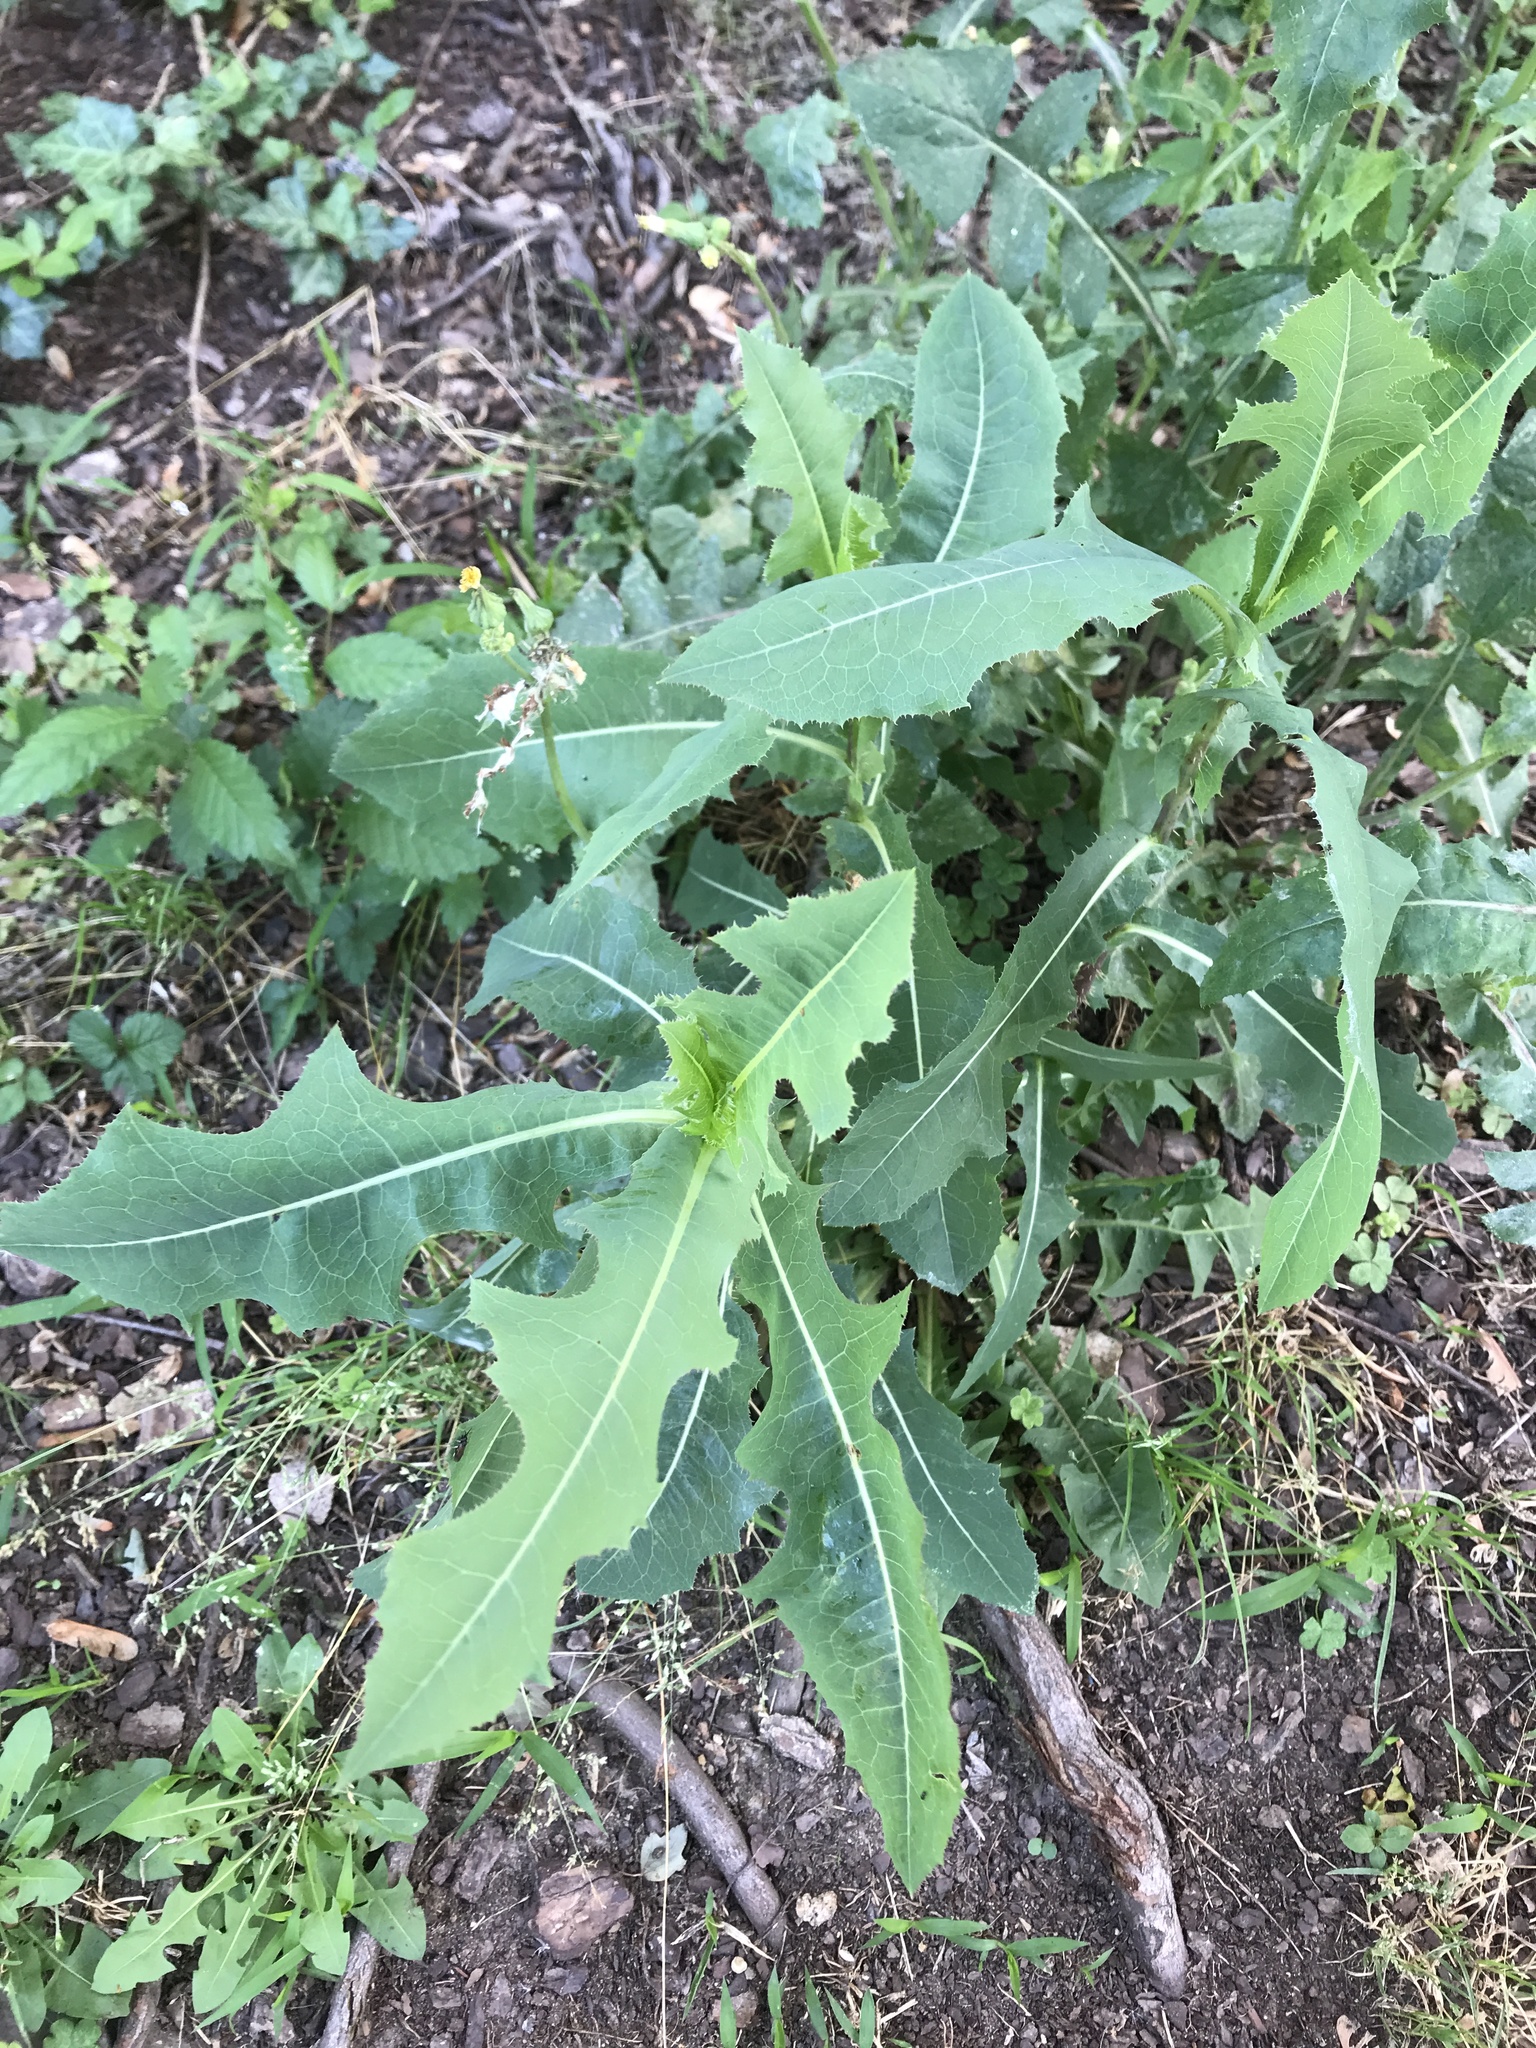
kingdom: Plantae
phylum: Tracheophyta
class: Magnoliopsida
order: Asterales
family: Asteraceae
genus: Lactuca
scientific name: Lactuca serriola
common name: Prickly lettuce
